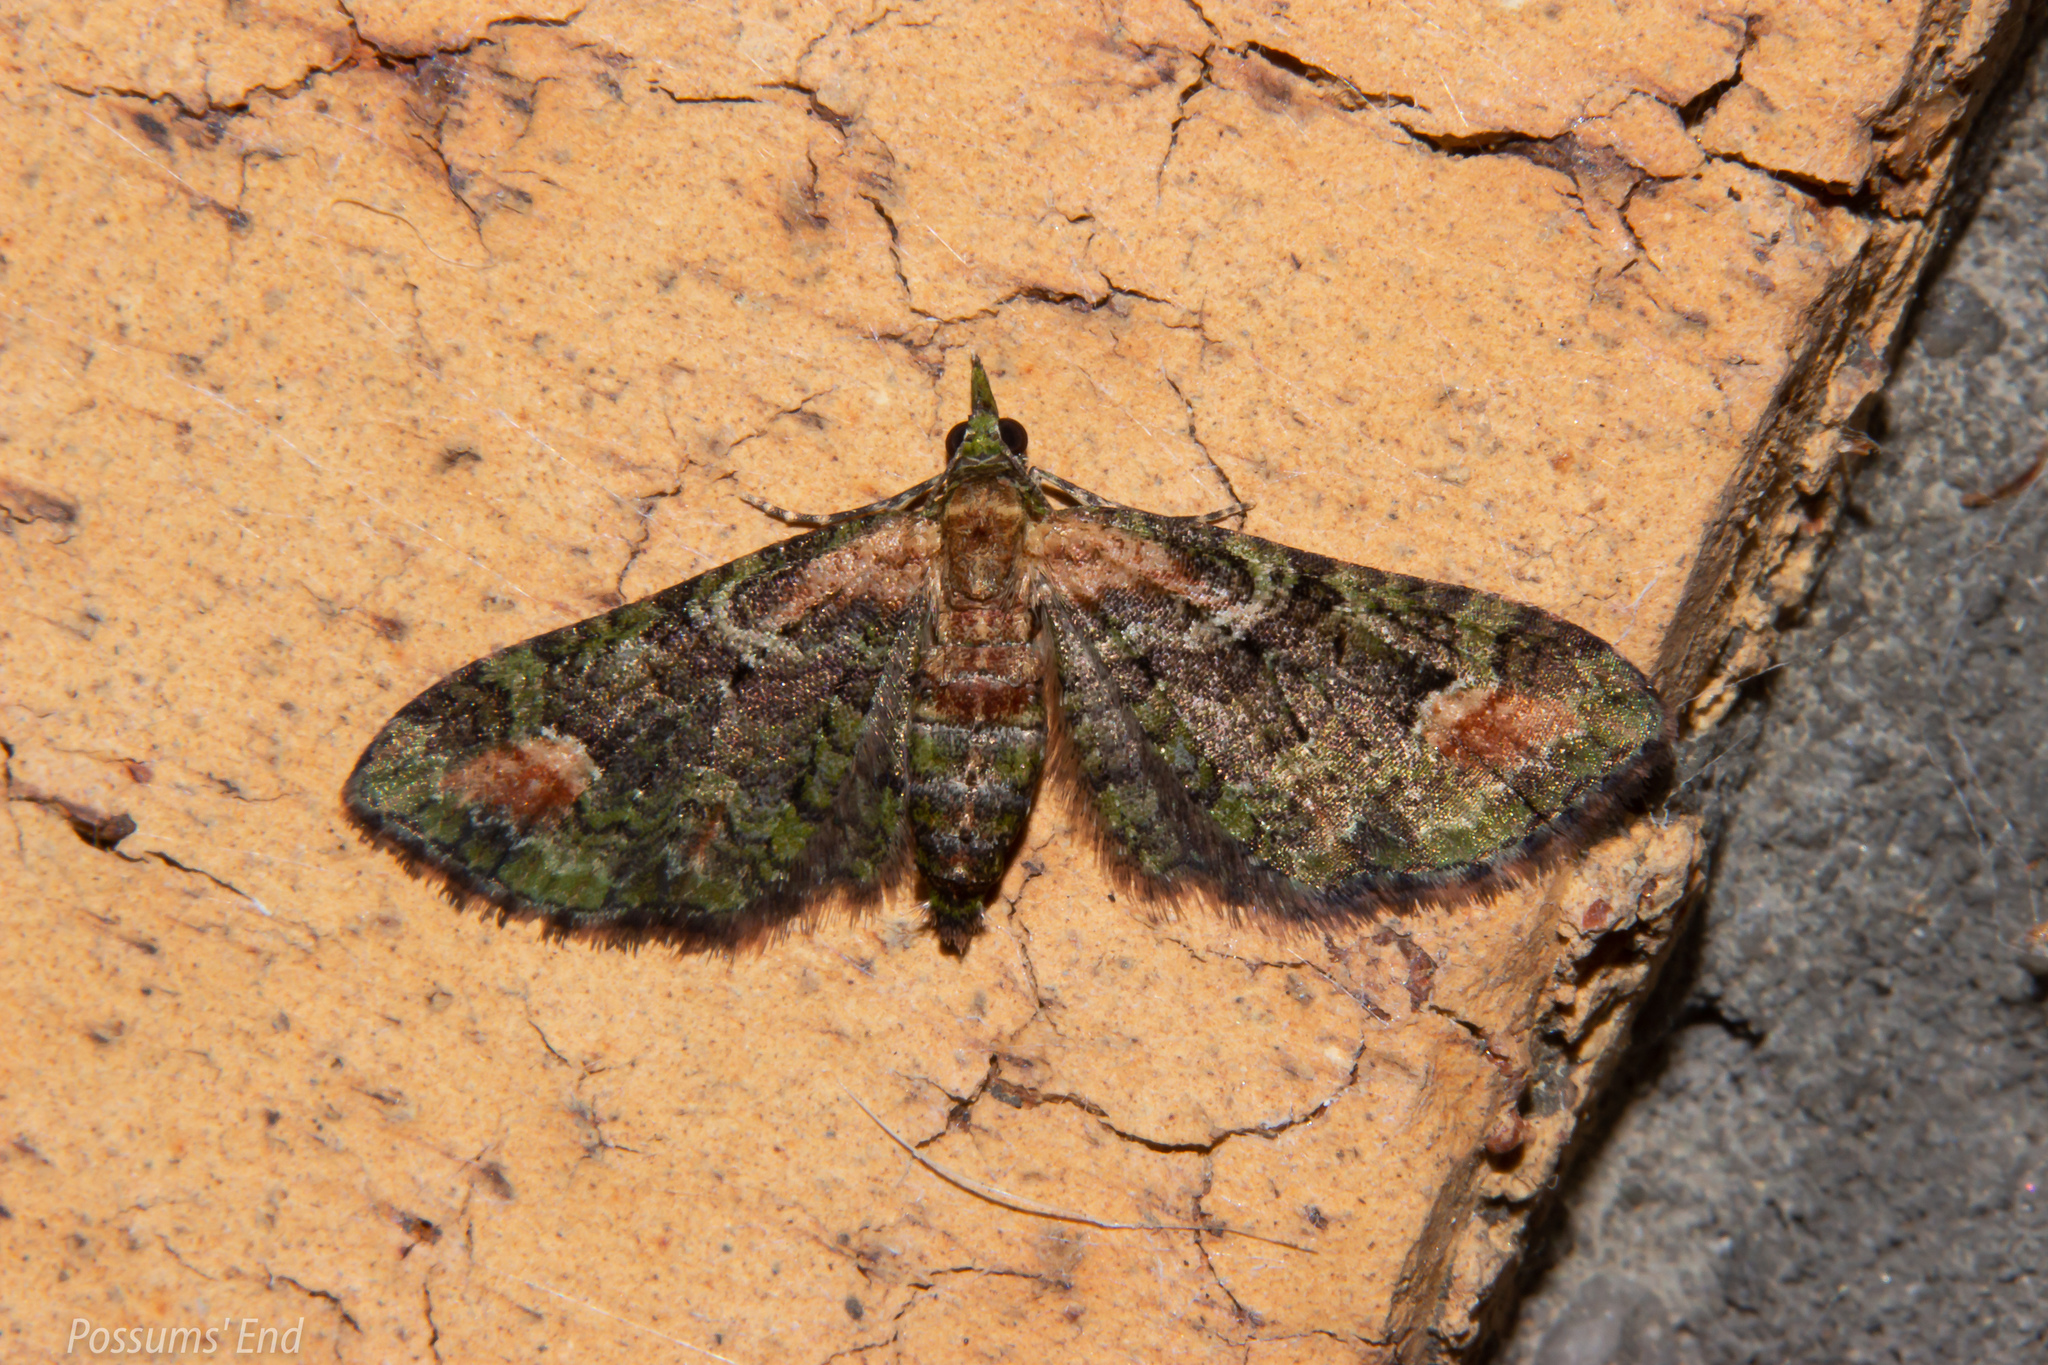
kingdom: Animalia
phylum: Arthropoda
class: Insecta
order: Lepidoptera
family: Geometridae
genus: Idaea
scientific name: Idaea mutanda
